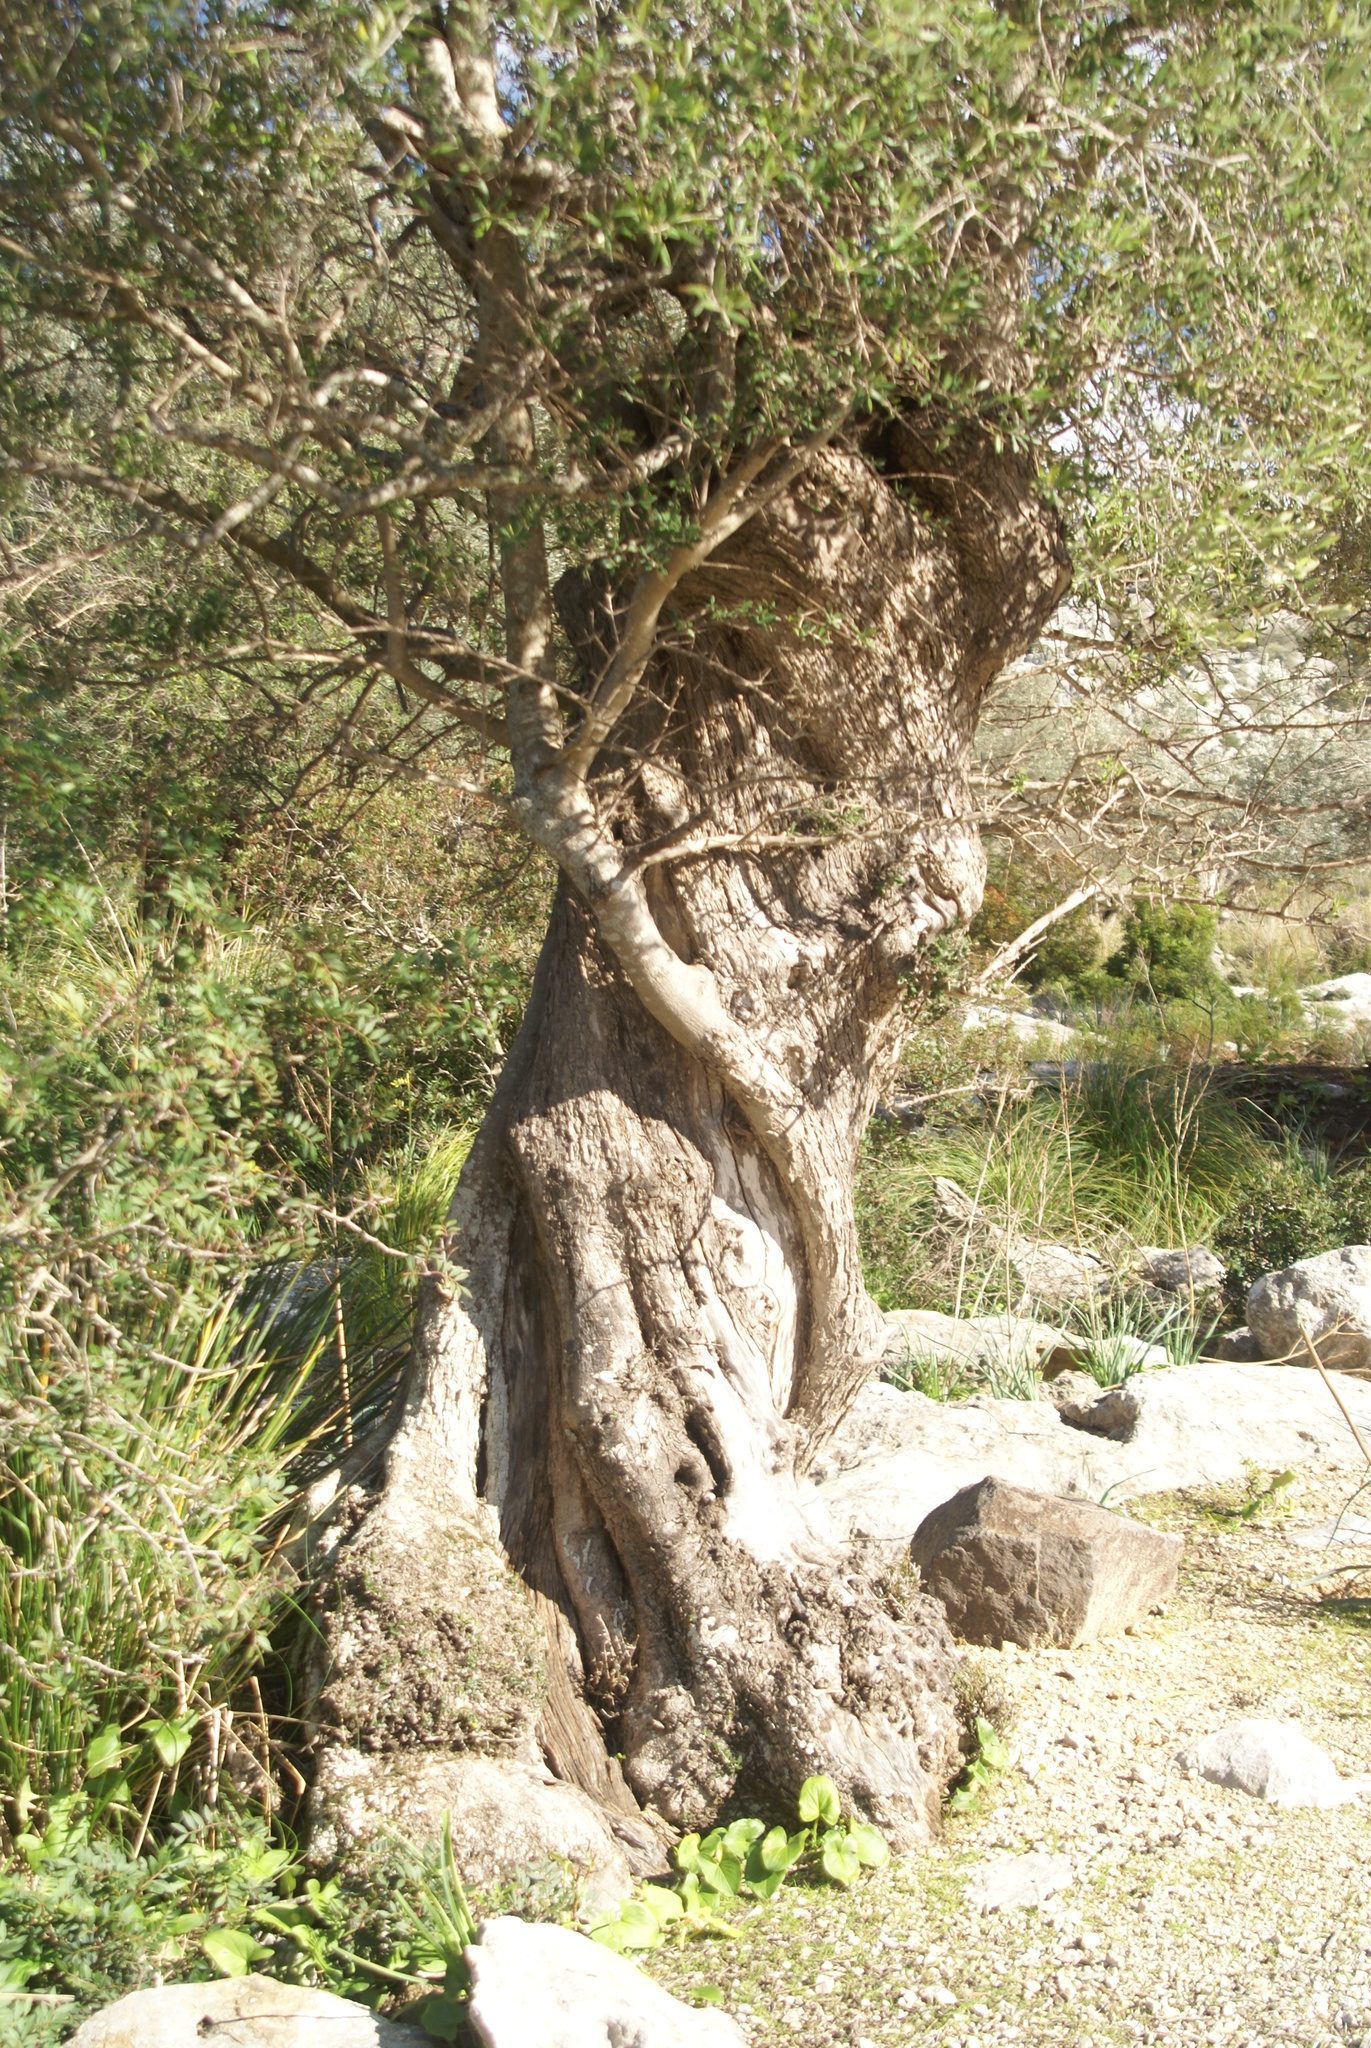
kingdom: Plantae
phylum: Tracheophyta
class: Magnoliopsida
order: Lamiales
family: Oleaceae
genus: Olea
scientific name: Olea europaea
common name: Olive
